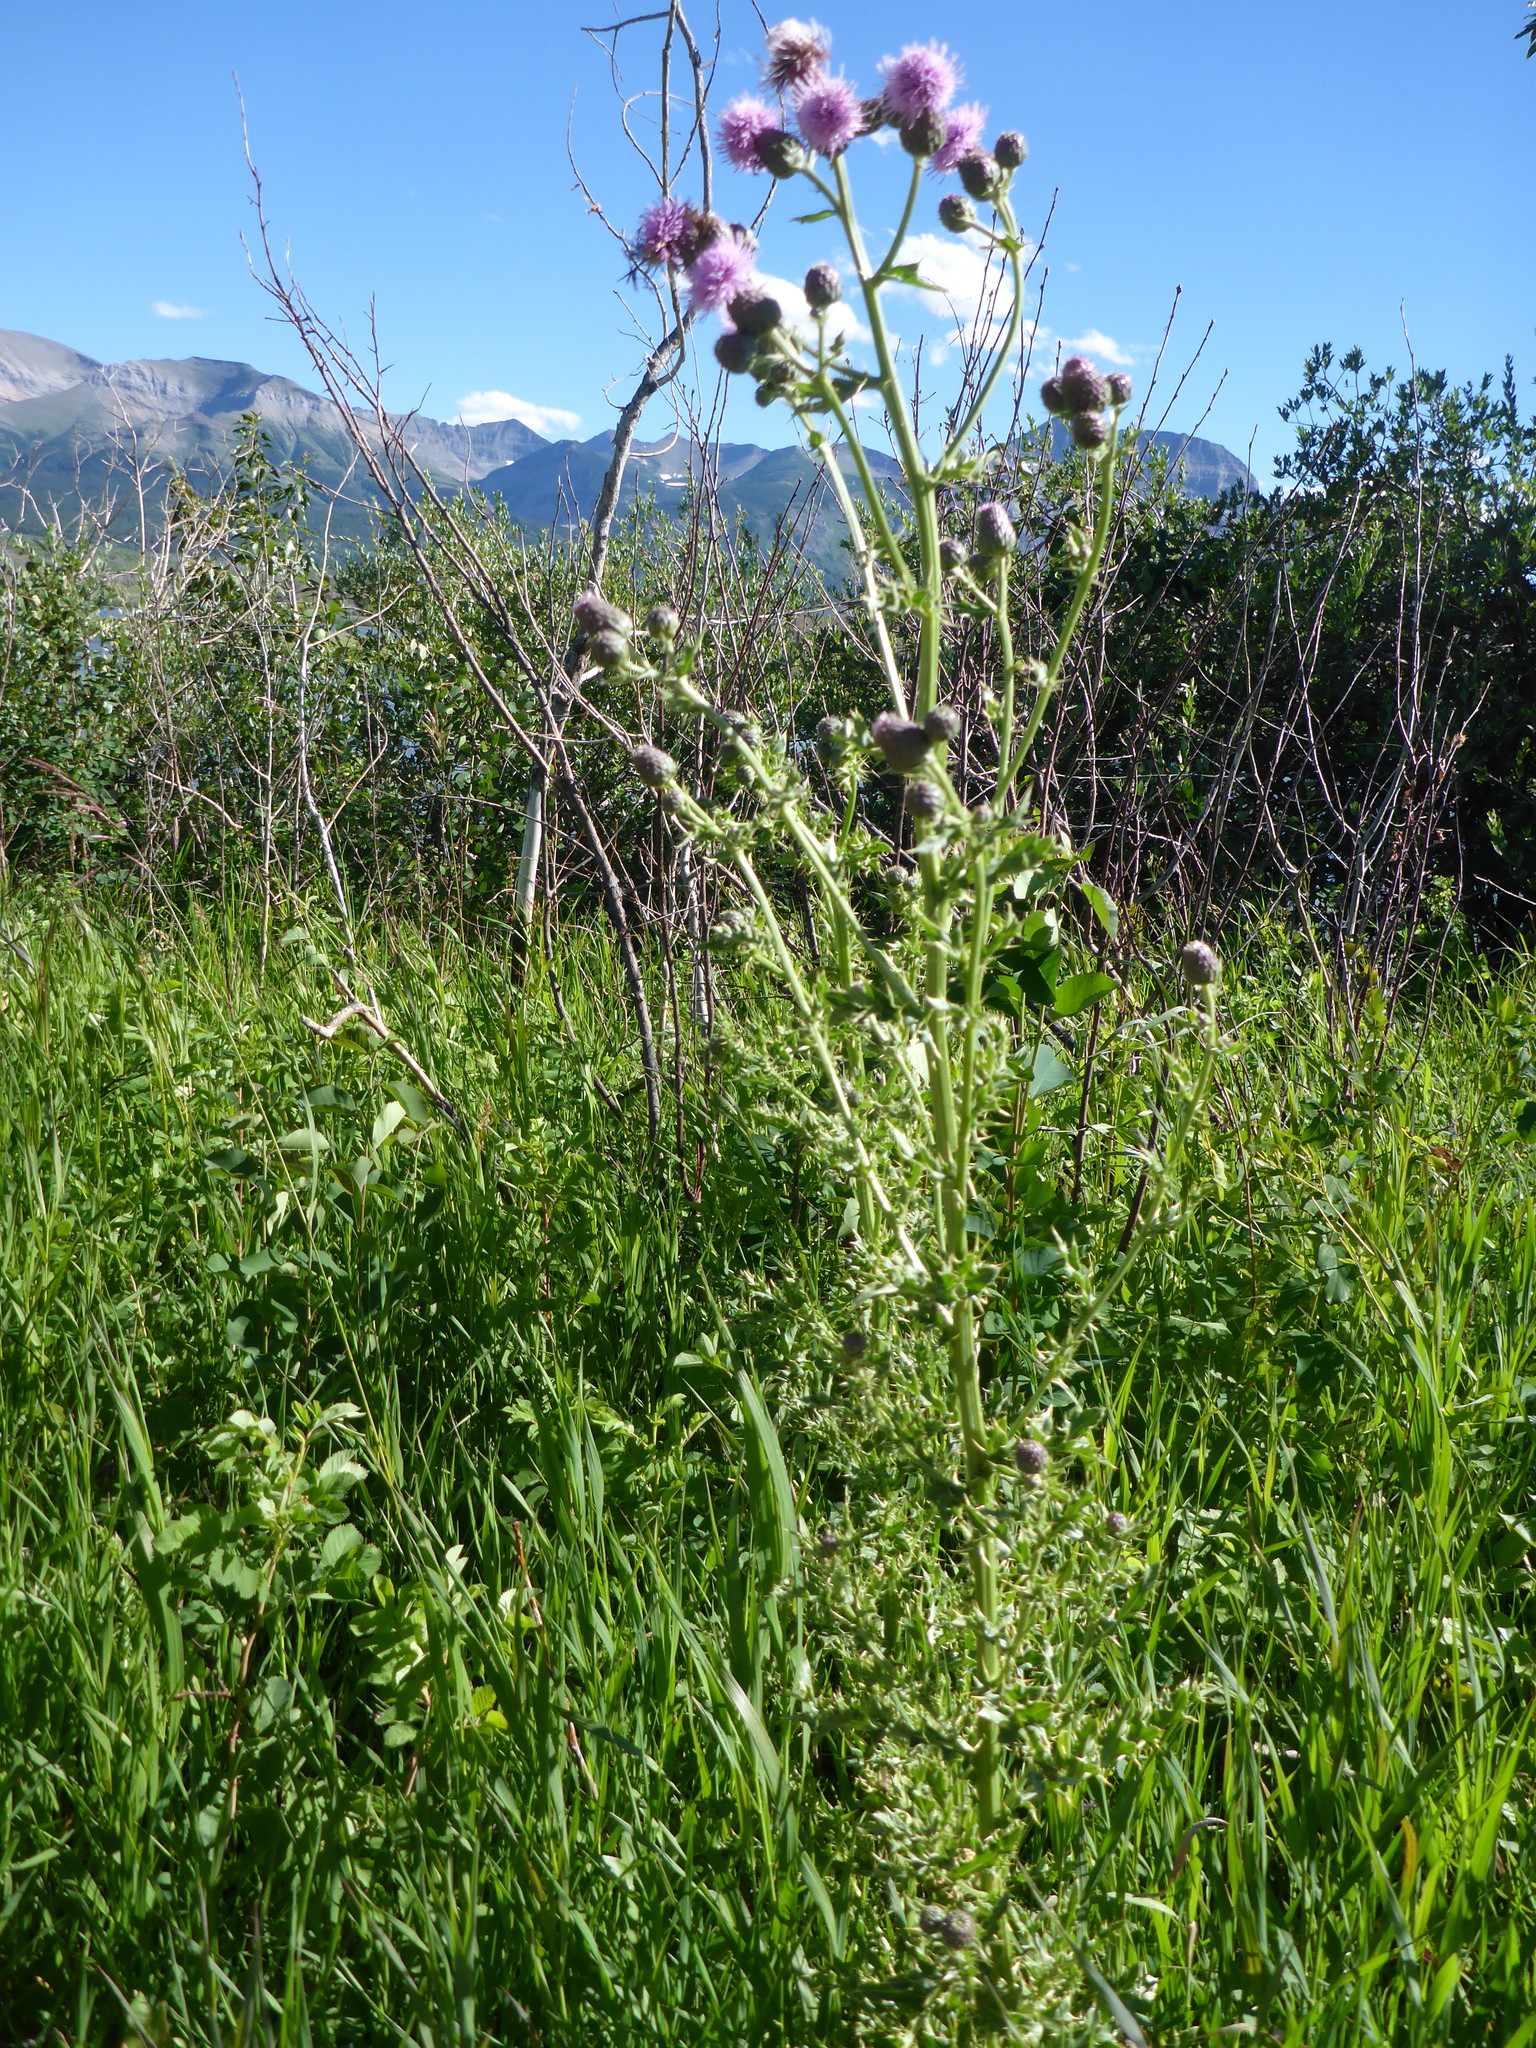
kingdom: Plantae
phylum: Tracheophyta
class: Magnoliopsida
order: Asterales
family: Asteraceae
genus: Cirsium
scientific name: Cirsium arvense
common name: Creeping thistle
